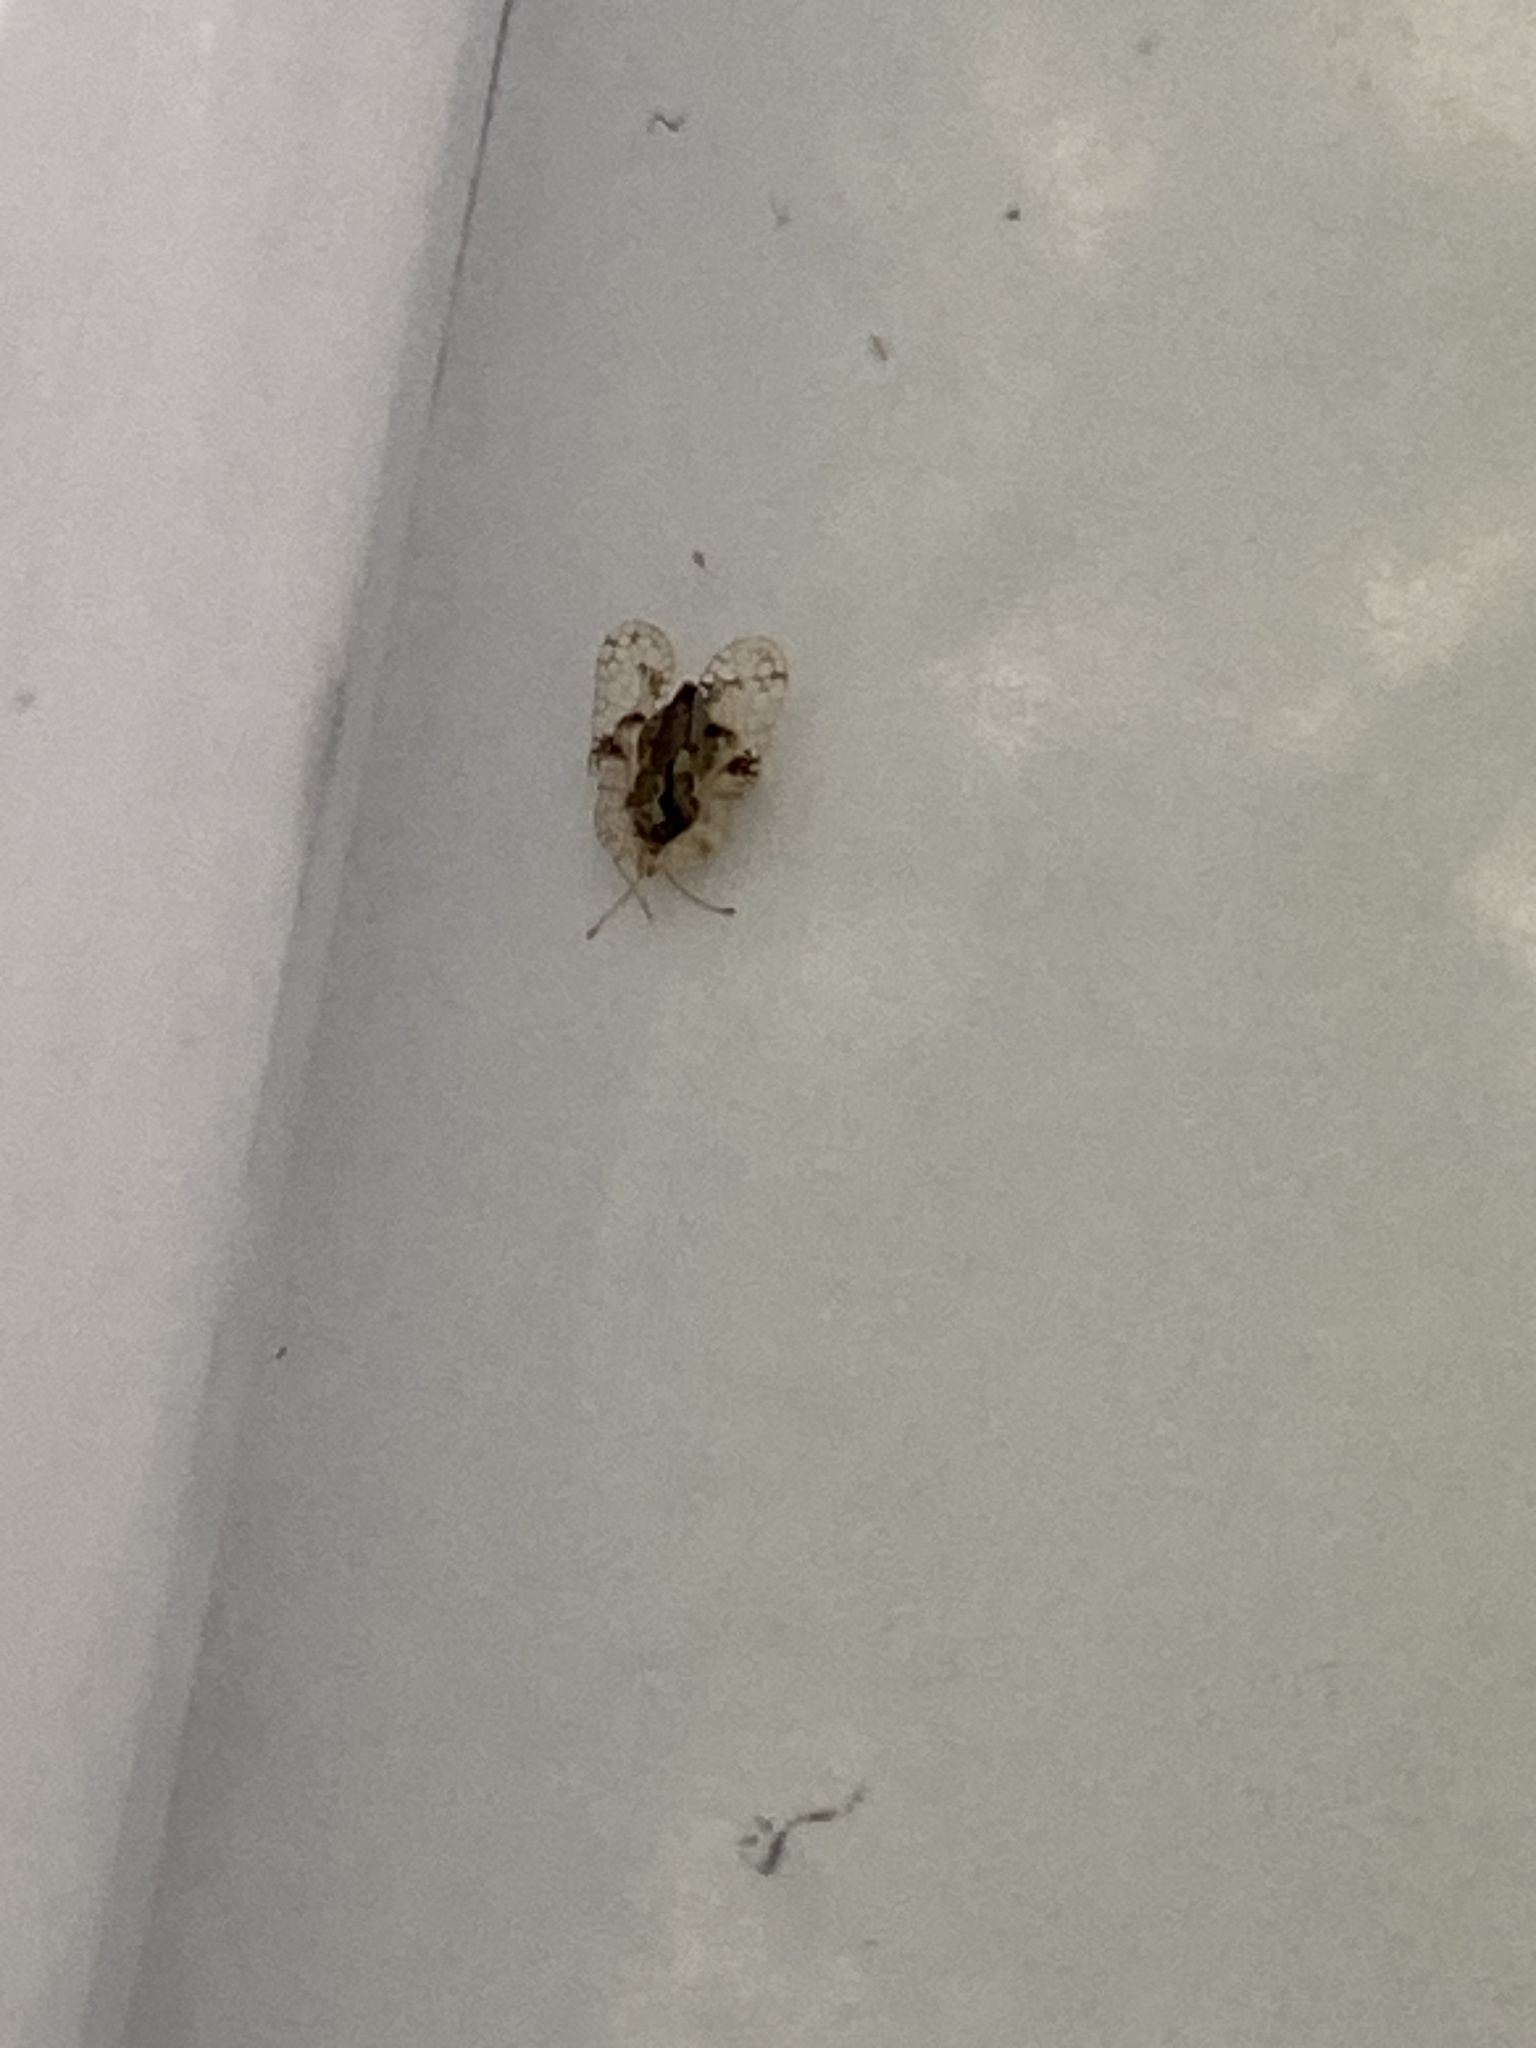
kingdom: Animalia
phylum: Arthropoda
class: Insecta
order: Hemiptera
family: Tingidae
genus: Corythucha
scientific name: Corythucha arcuata
